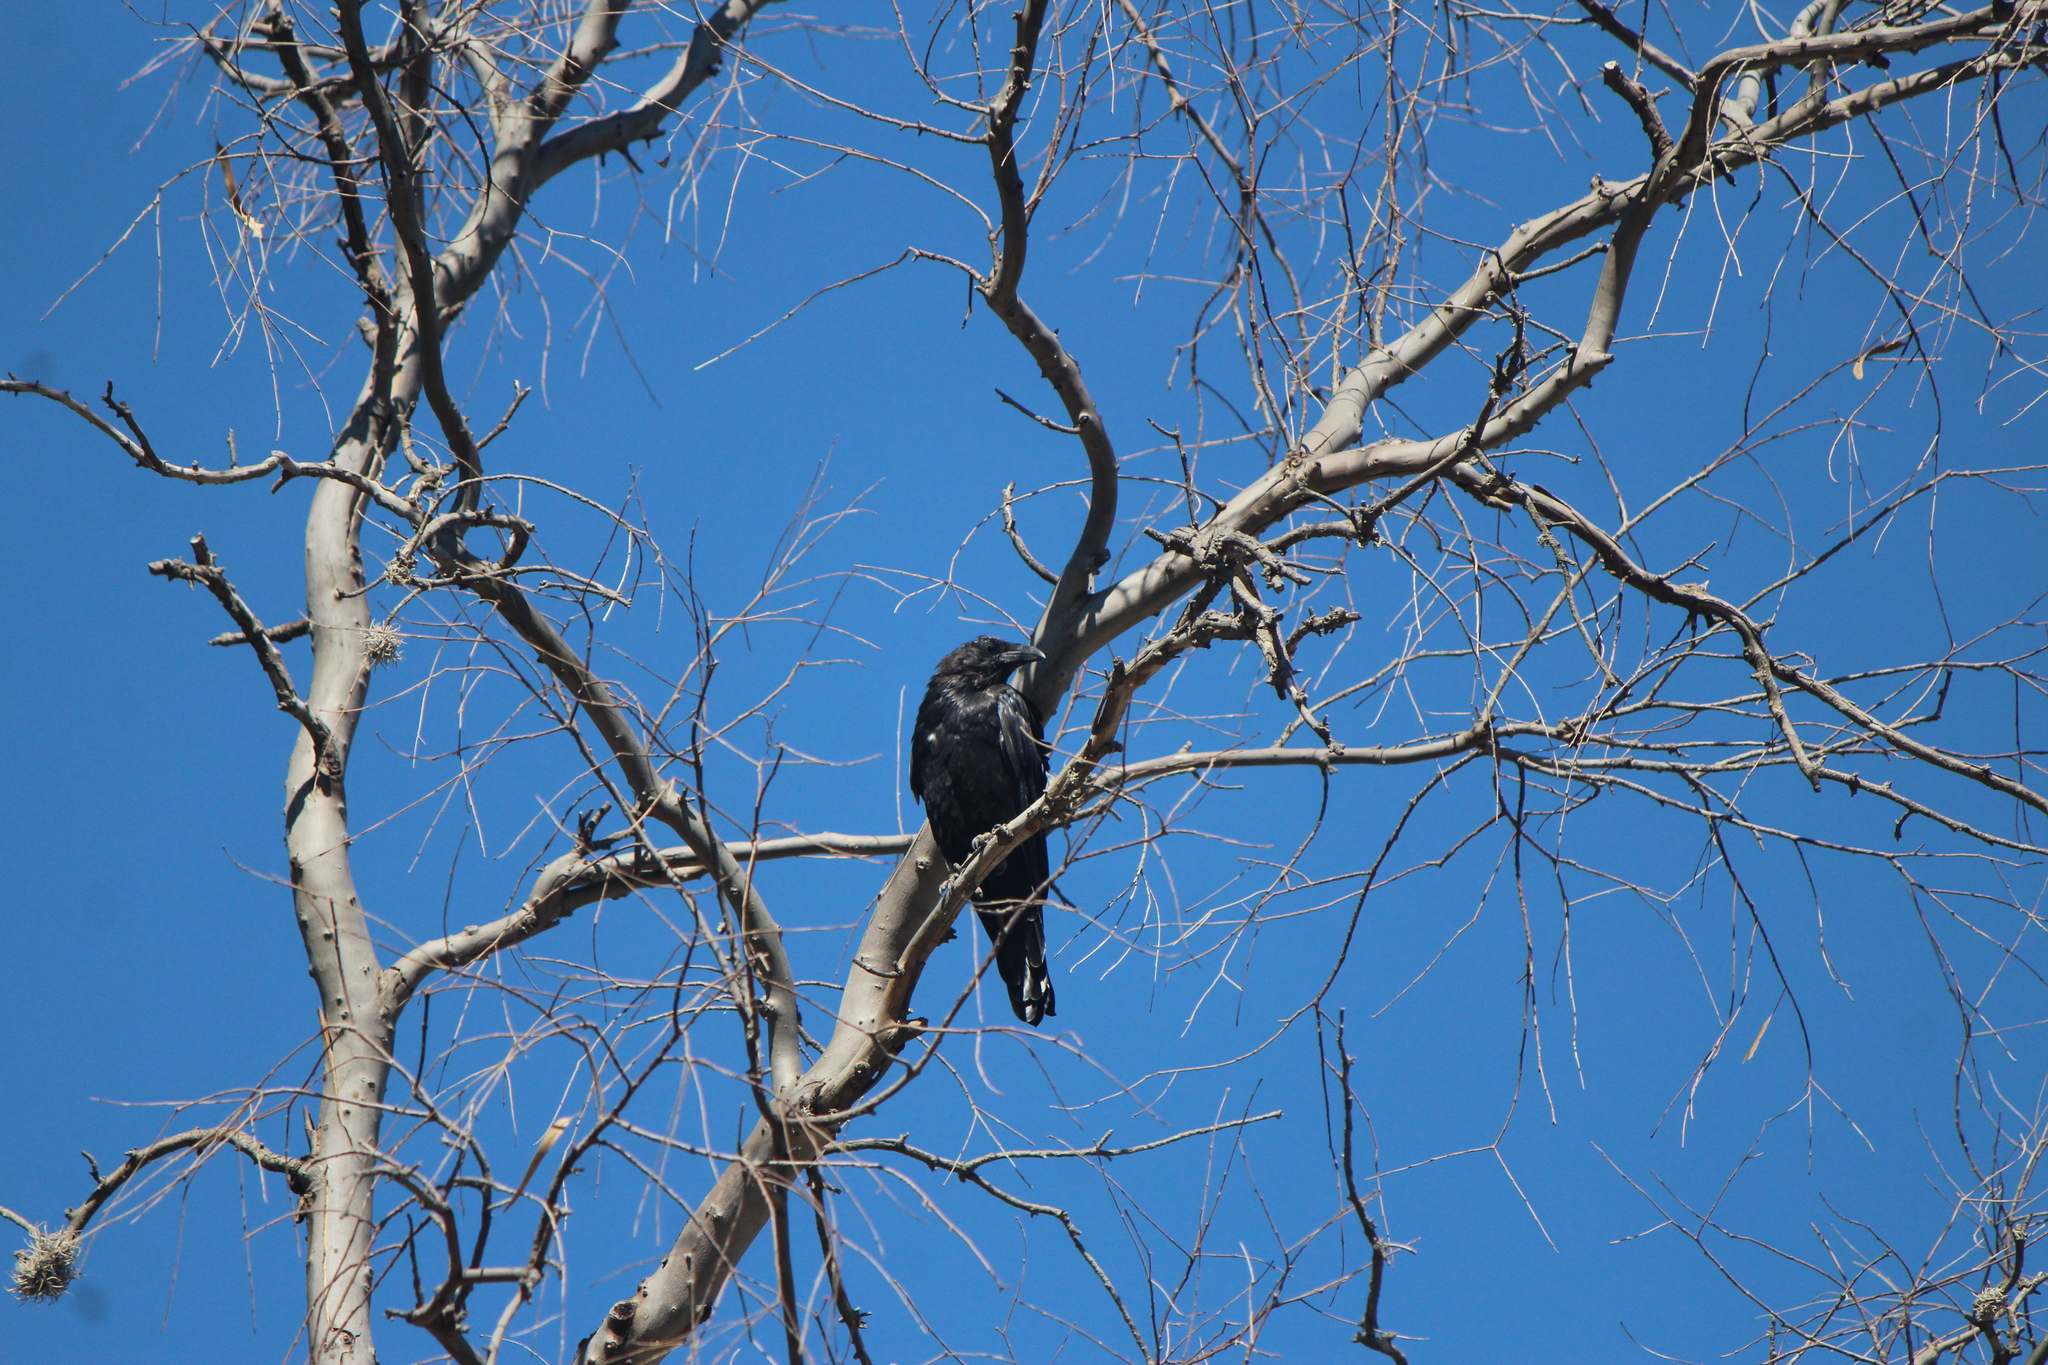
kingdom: Animalia
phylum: Chordata
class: Aves
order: Passeriformes
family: Corvidae
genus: Corvus
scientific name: Corvus corax
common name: Common raven
